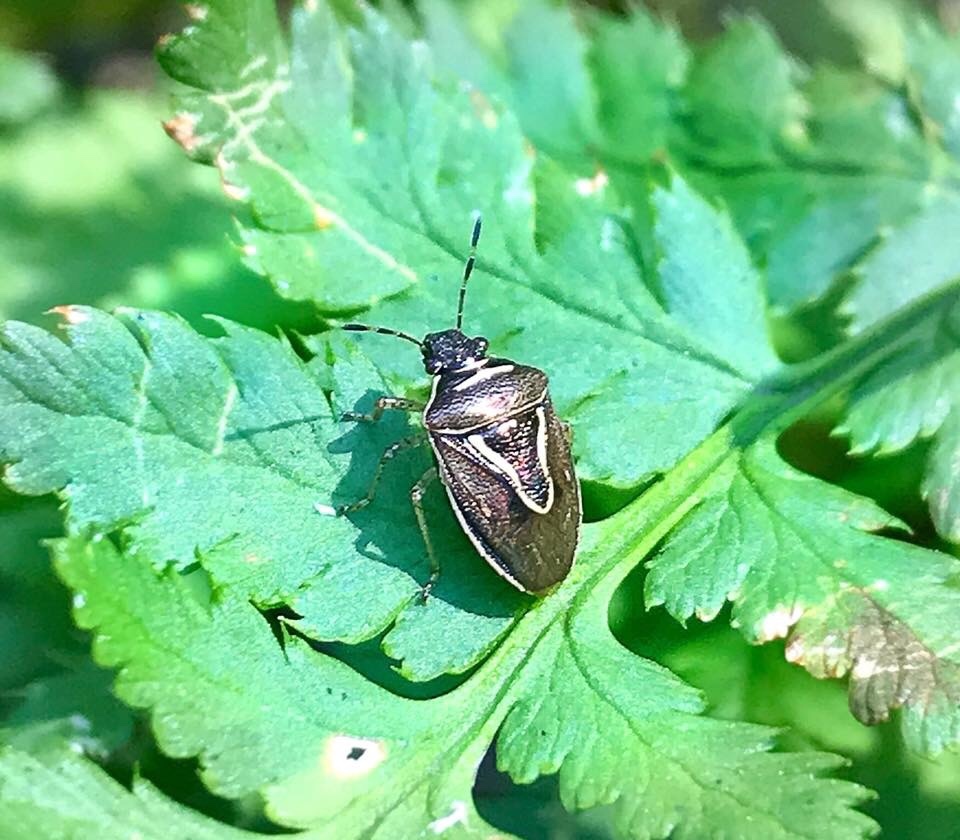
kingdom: Animalia
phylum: Arthropoda
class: Insecta
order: Hemiptera
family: Pentatomidae
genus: Mormidea
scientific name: Mormidea lugens
